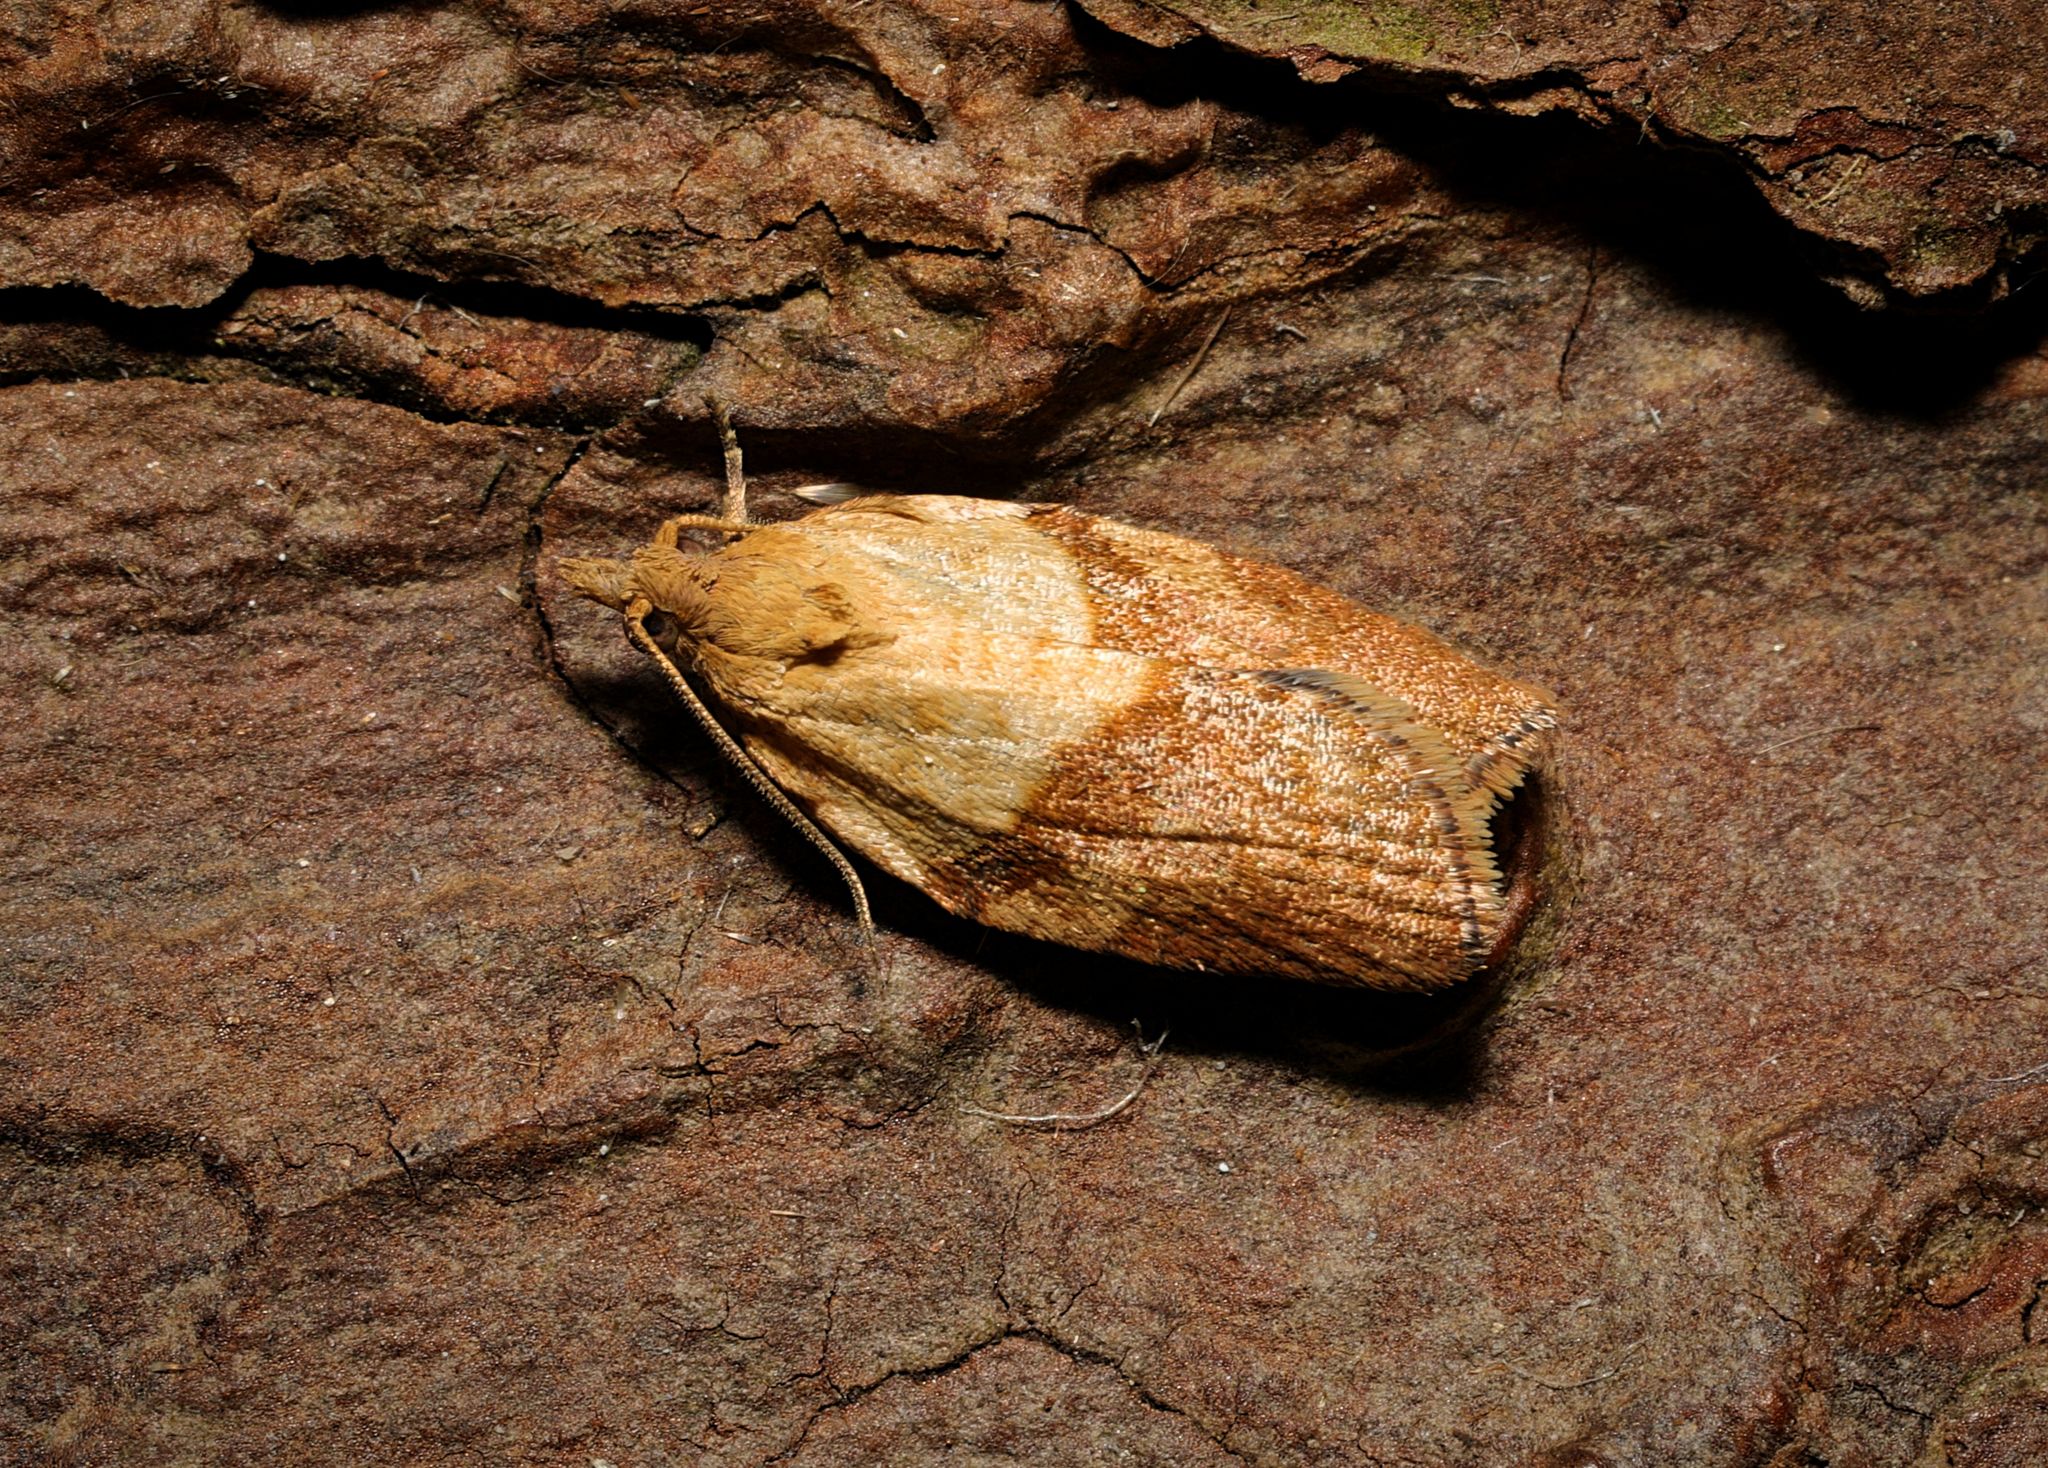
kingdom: Animalia
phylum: Arthropoda
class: Insecta
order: Lepidoptera
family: Tortricidae
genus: Epiphyas
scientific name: Epiphyas postvittana
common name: Light brown apple moth
